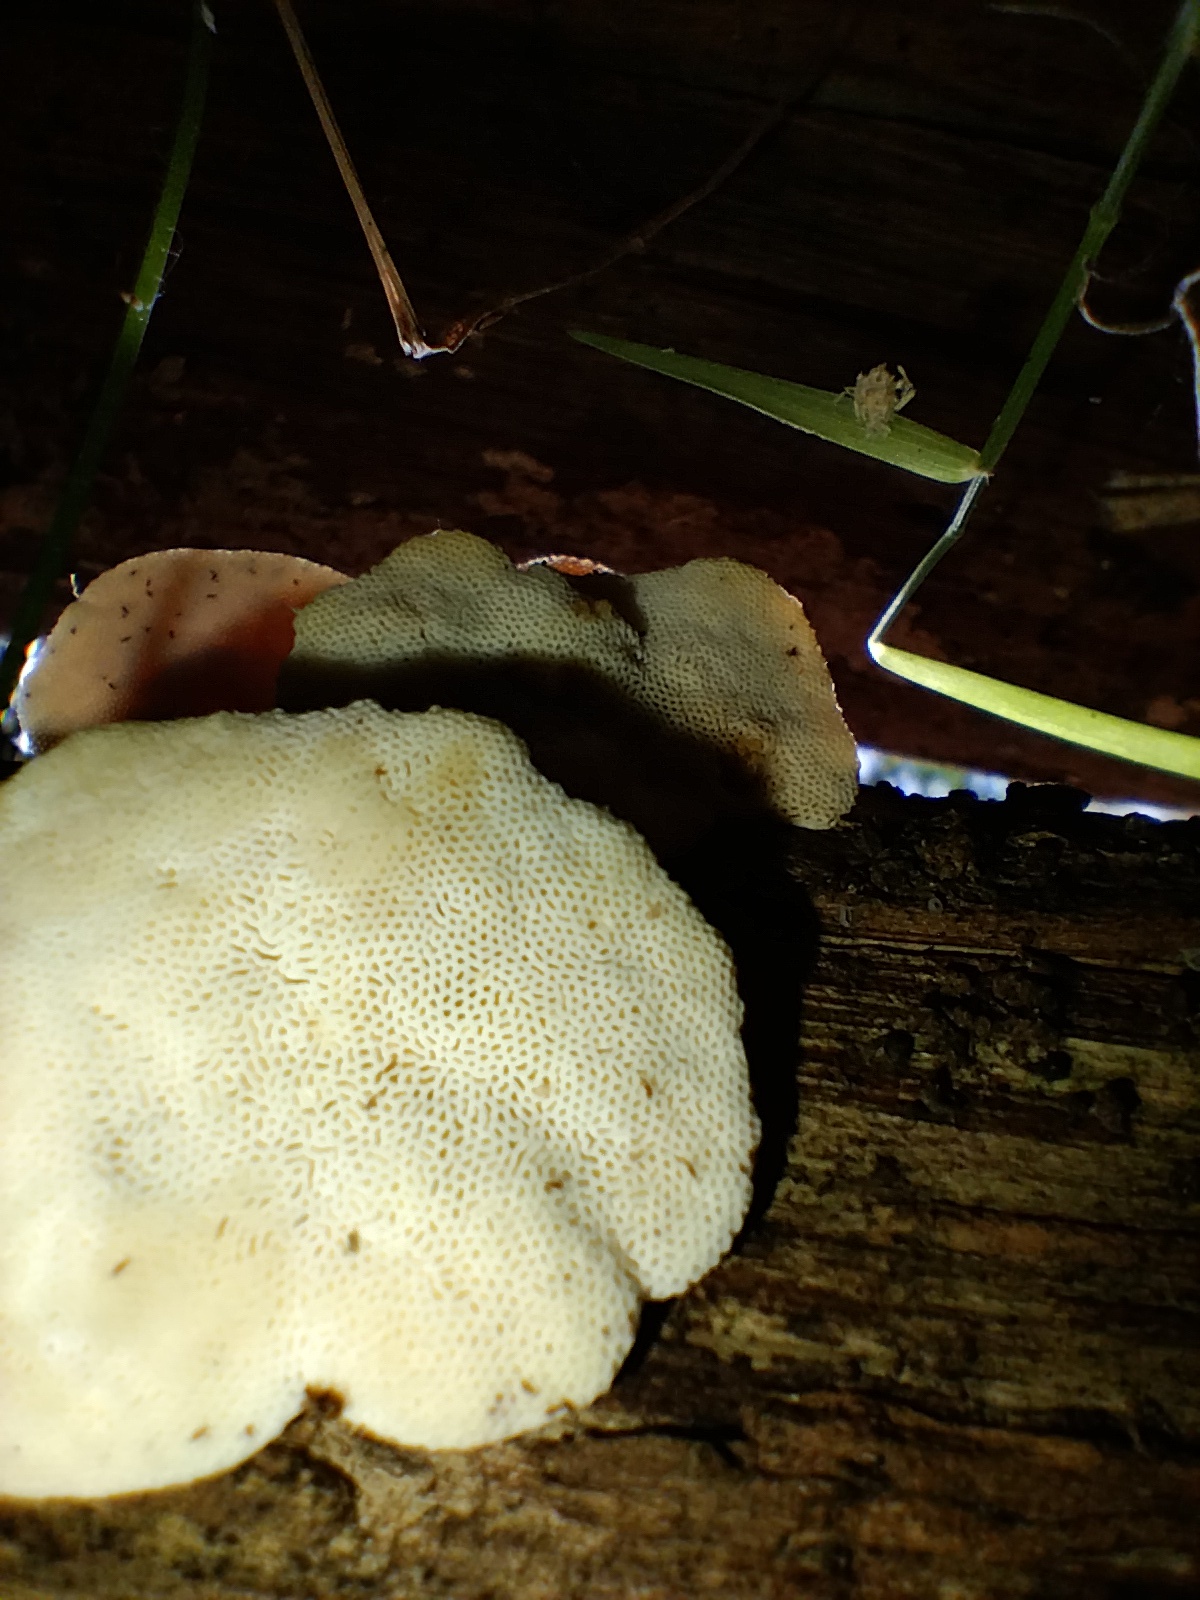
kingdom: Fungi
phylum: Basidiomycota
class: Agaricomycetes
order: Polyporales
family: Polyporaceae
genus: Truncospora
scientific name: Truncospora ochroleuca
